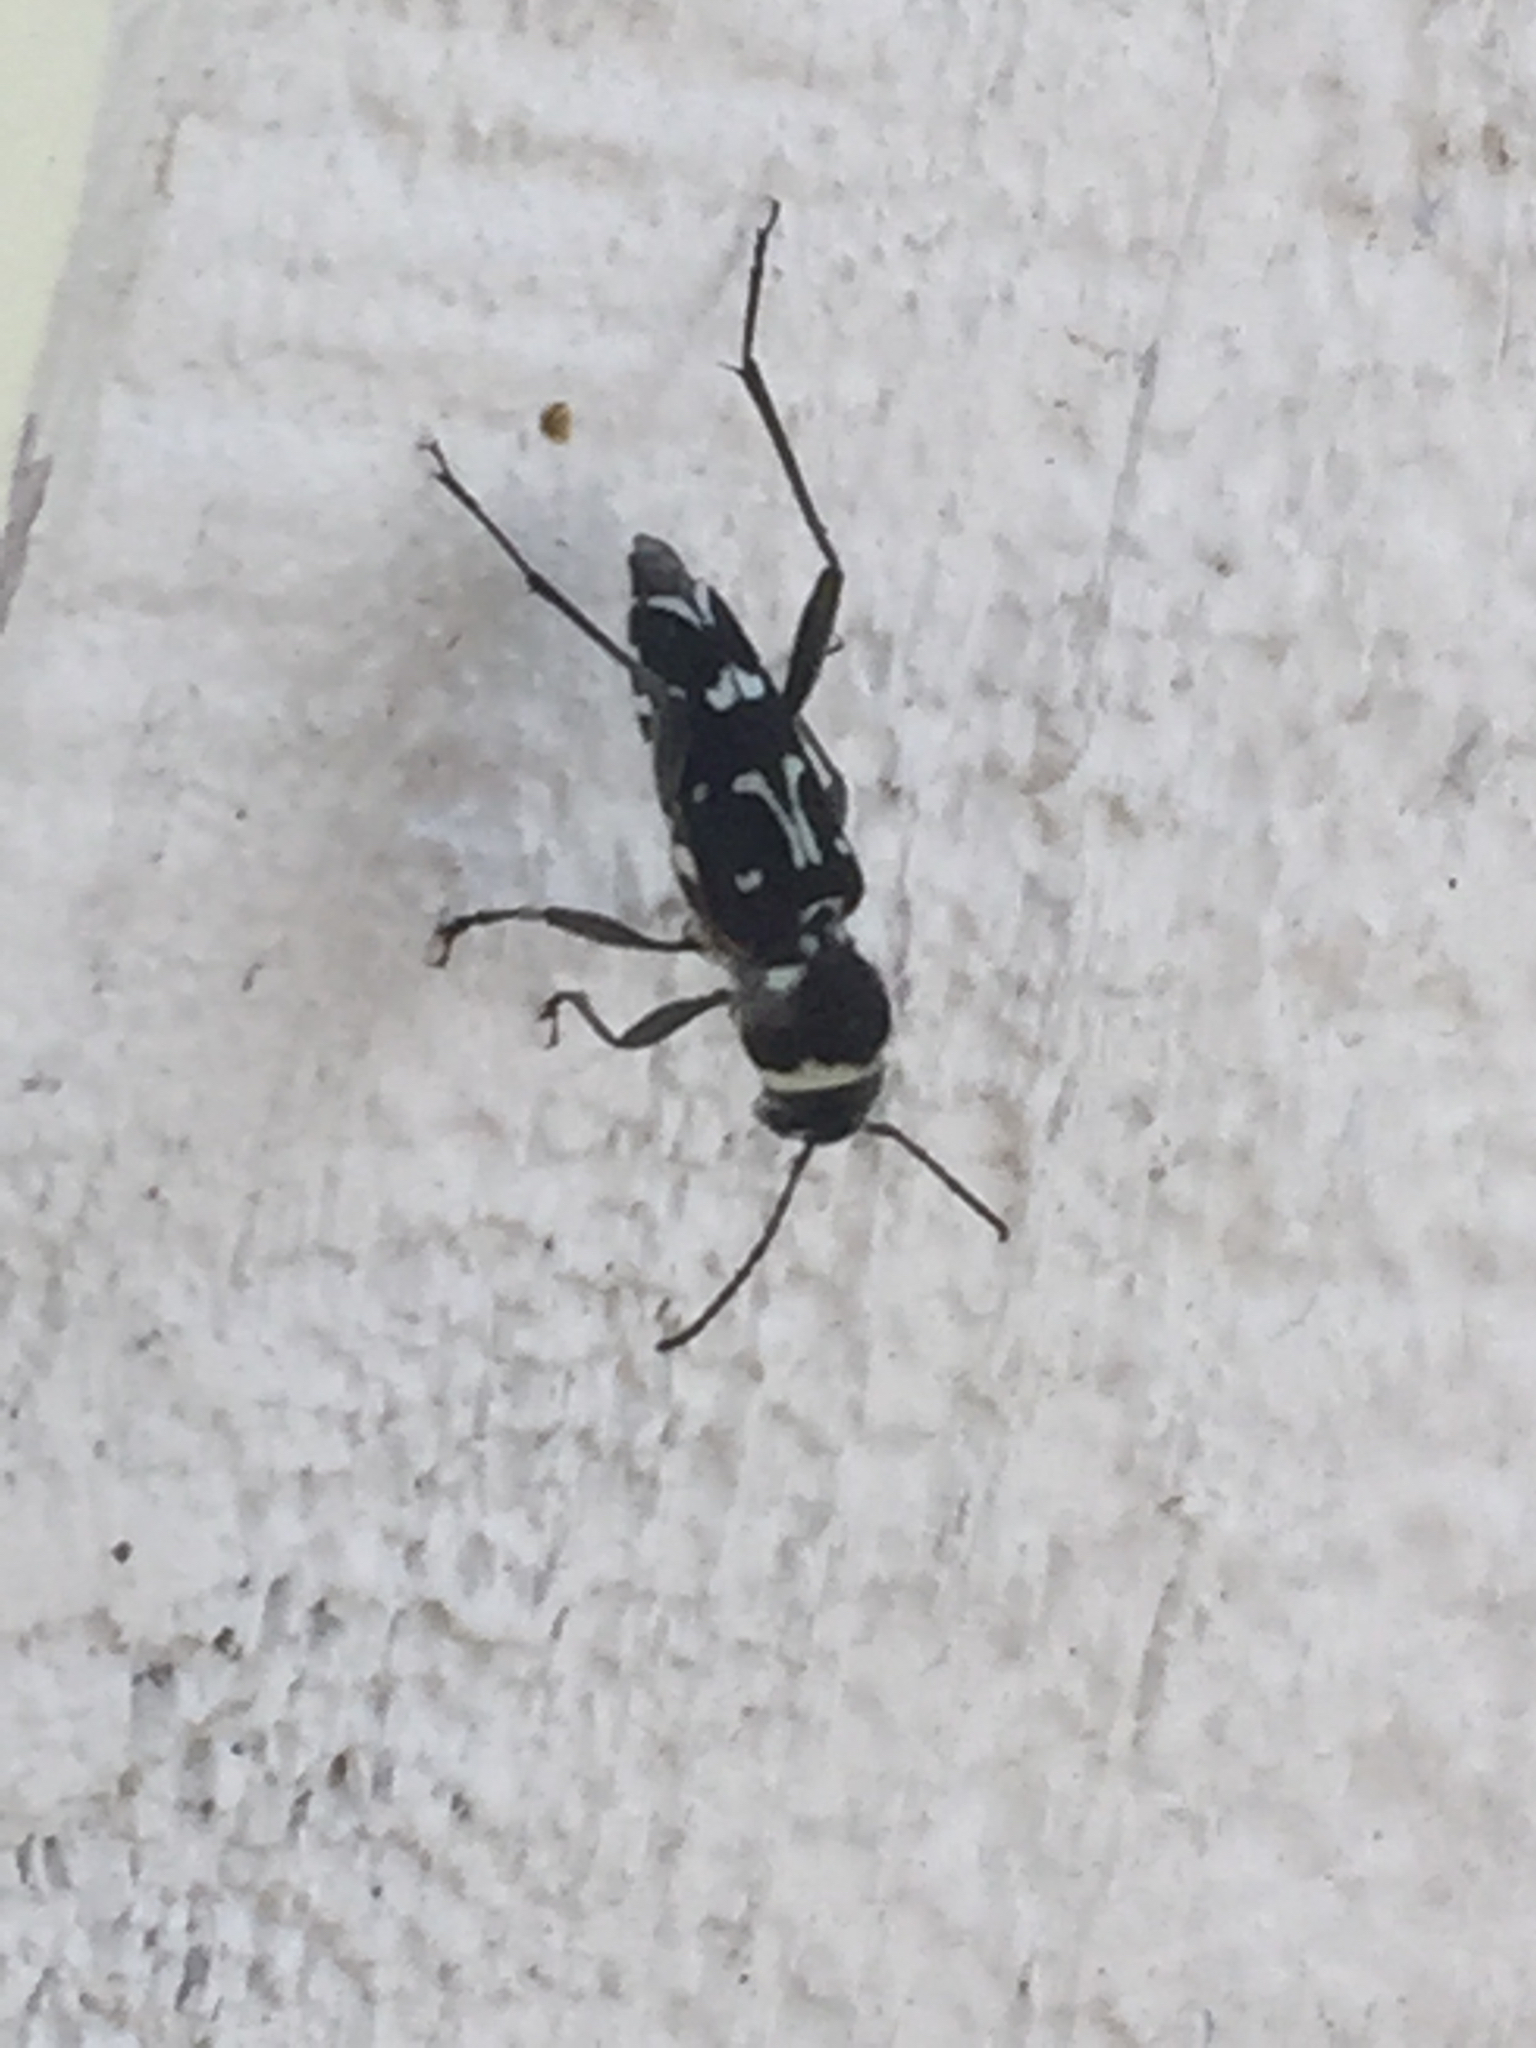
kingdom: Animalia
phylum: Arthropoda
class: Insecta
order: Coleoptera
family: Cerambycidae
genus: Xylotrechus
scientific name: Xylotrechus undulatus
